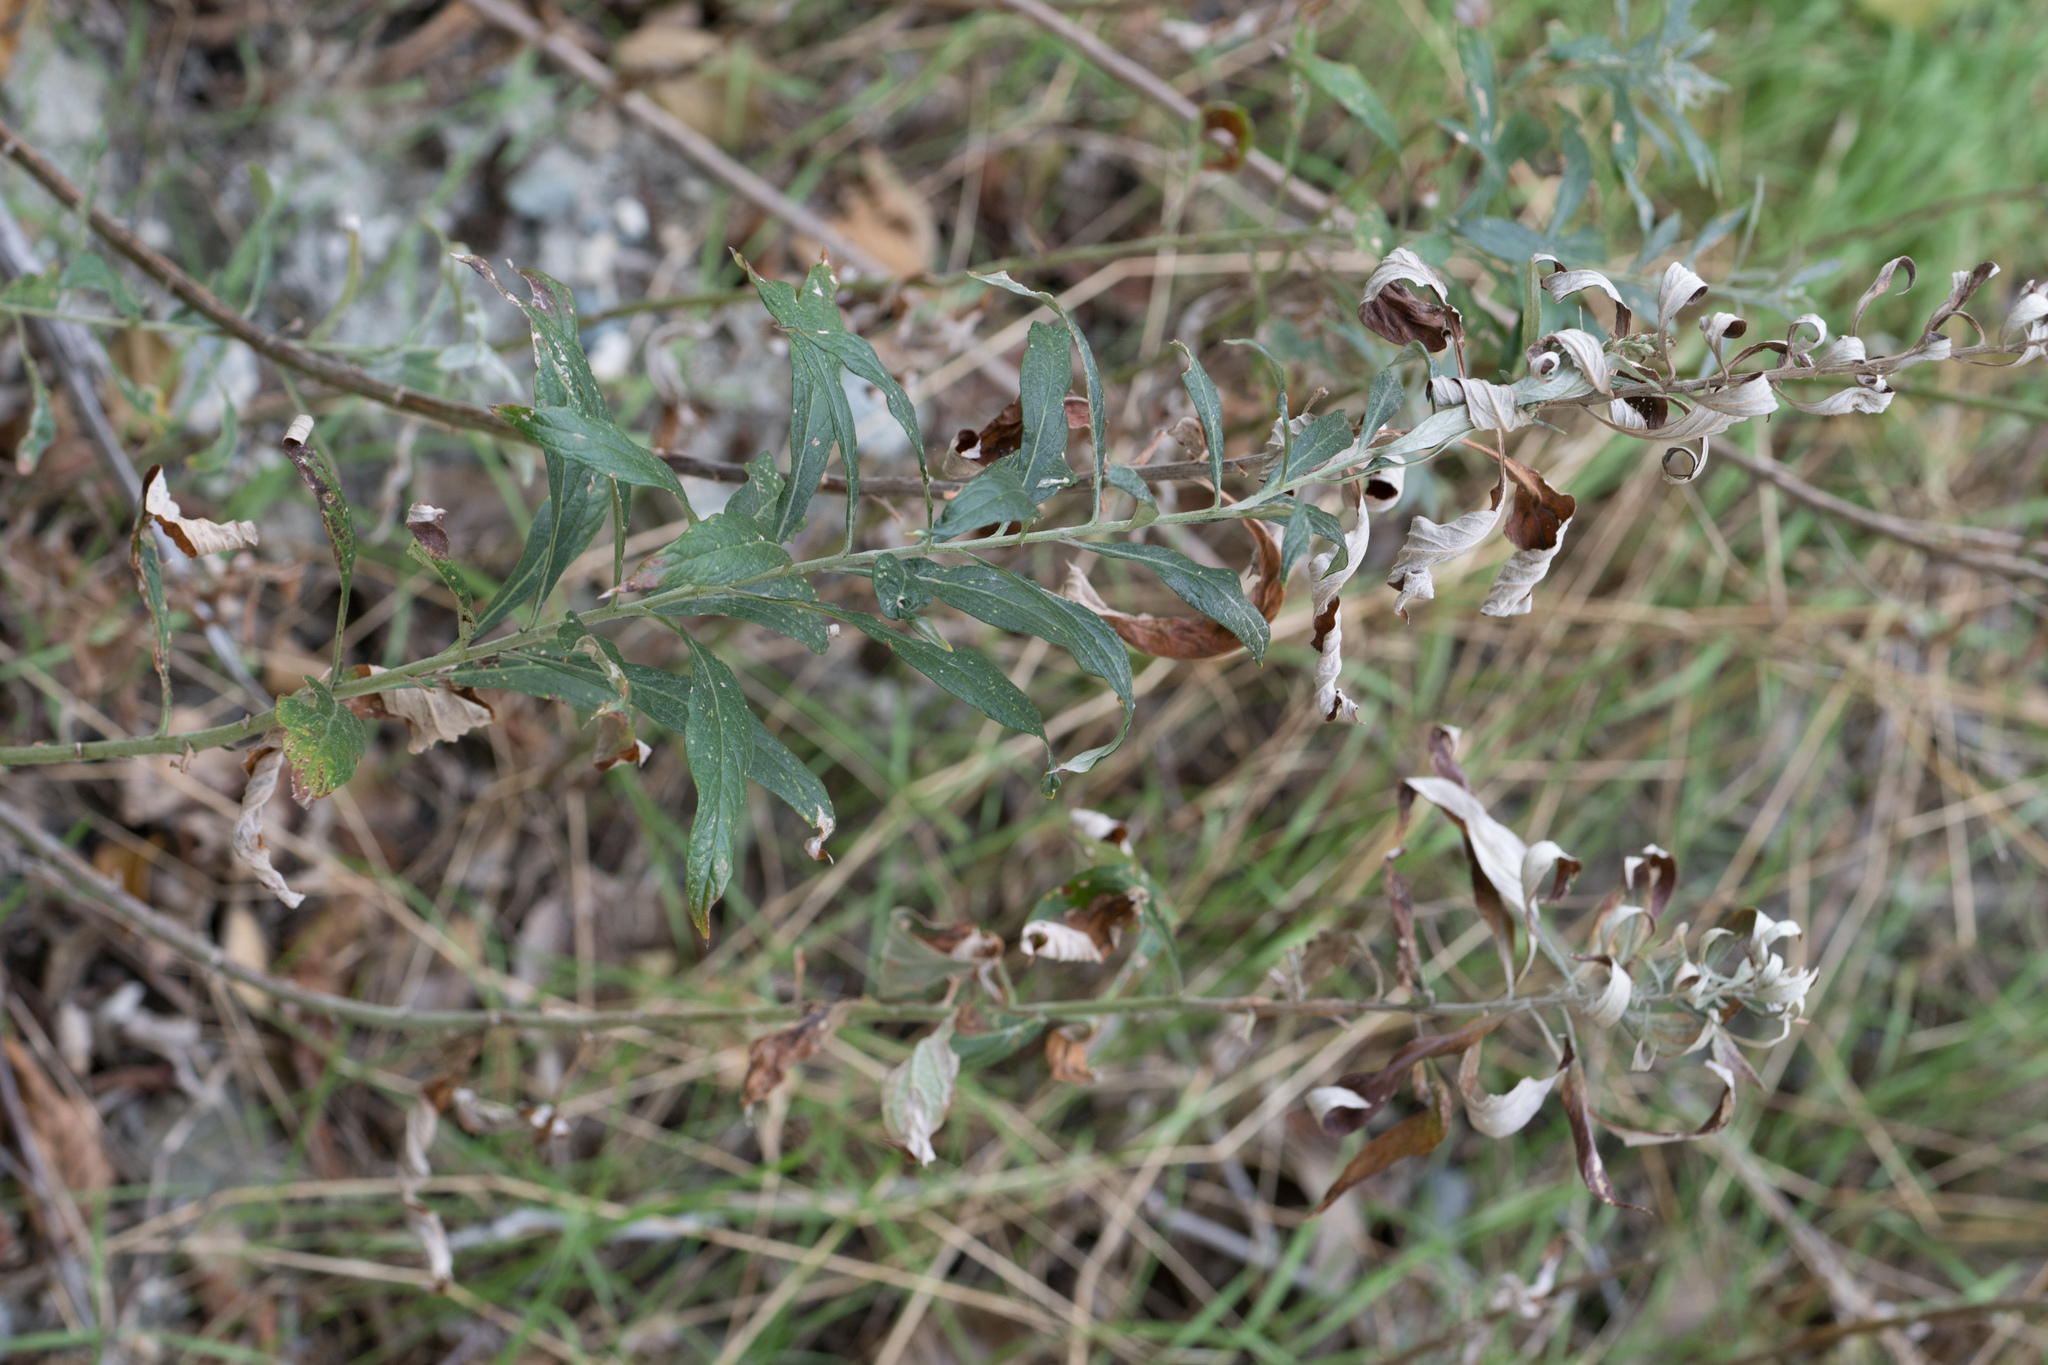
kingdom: Plantae
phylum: Tracheophyta
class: Magnoliopsida
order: Asterales
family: Asteraceae
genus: Artemisia
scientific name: Artemisia douglasiana
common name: Northwest mugwort
